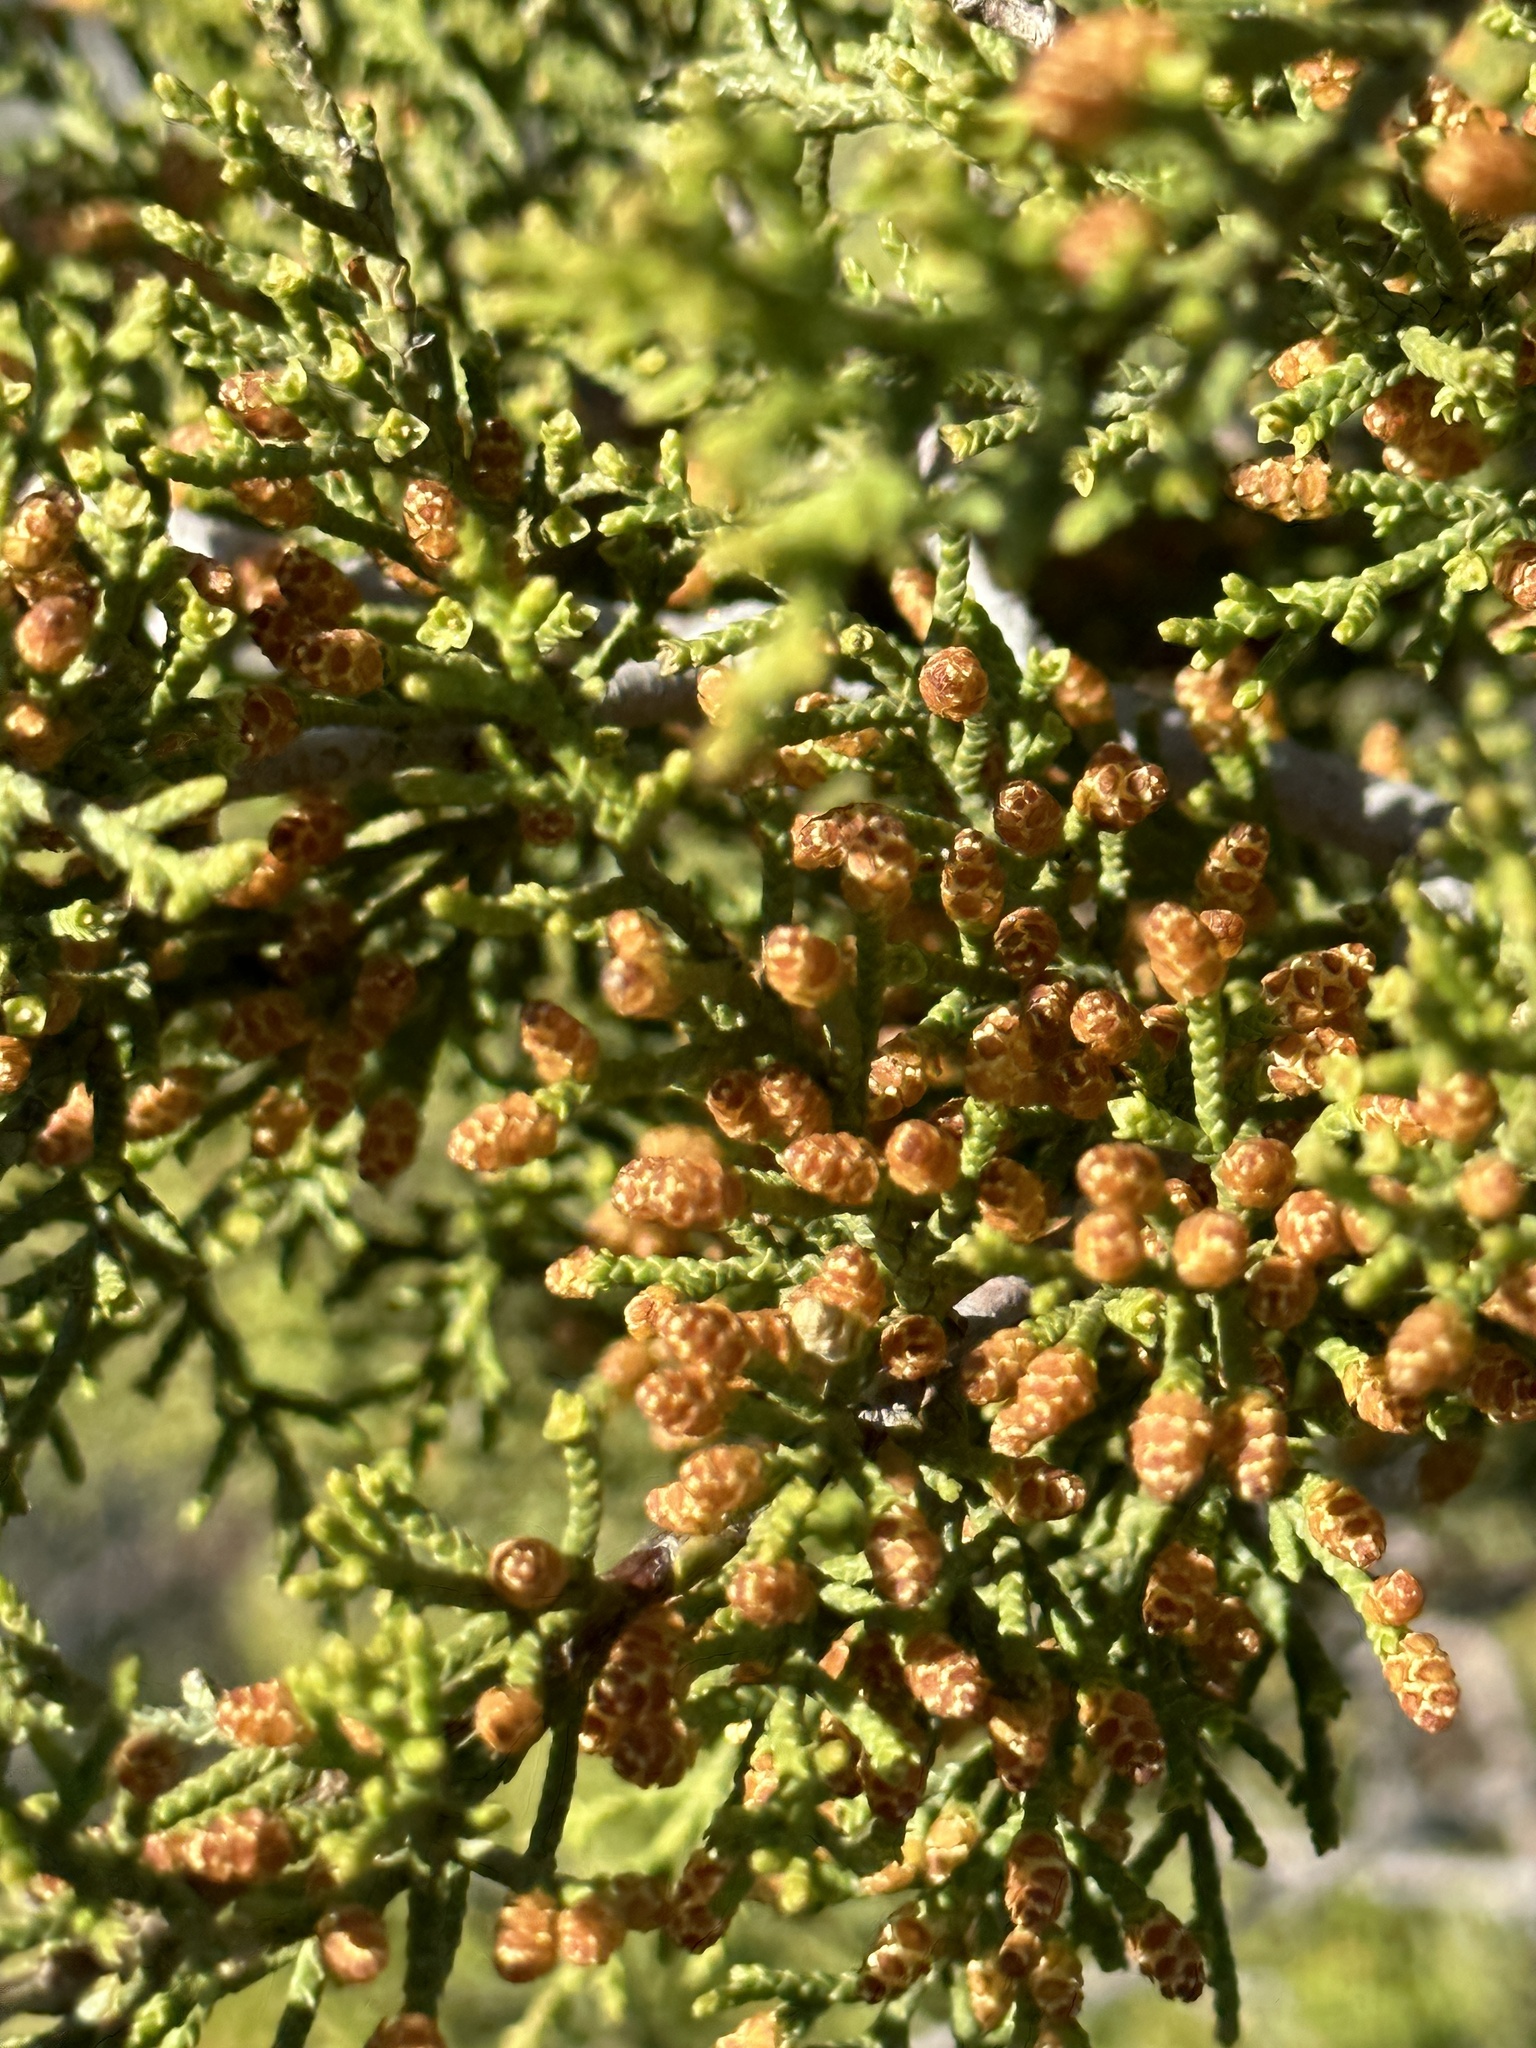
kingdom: Plantae
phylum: Tracheophyta
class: Pinopsida
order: Pinales
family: Cupressaceae
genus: Cupressus
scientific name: Cupressus guadalupensis
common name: Forbes cypress
